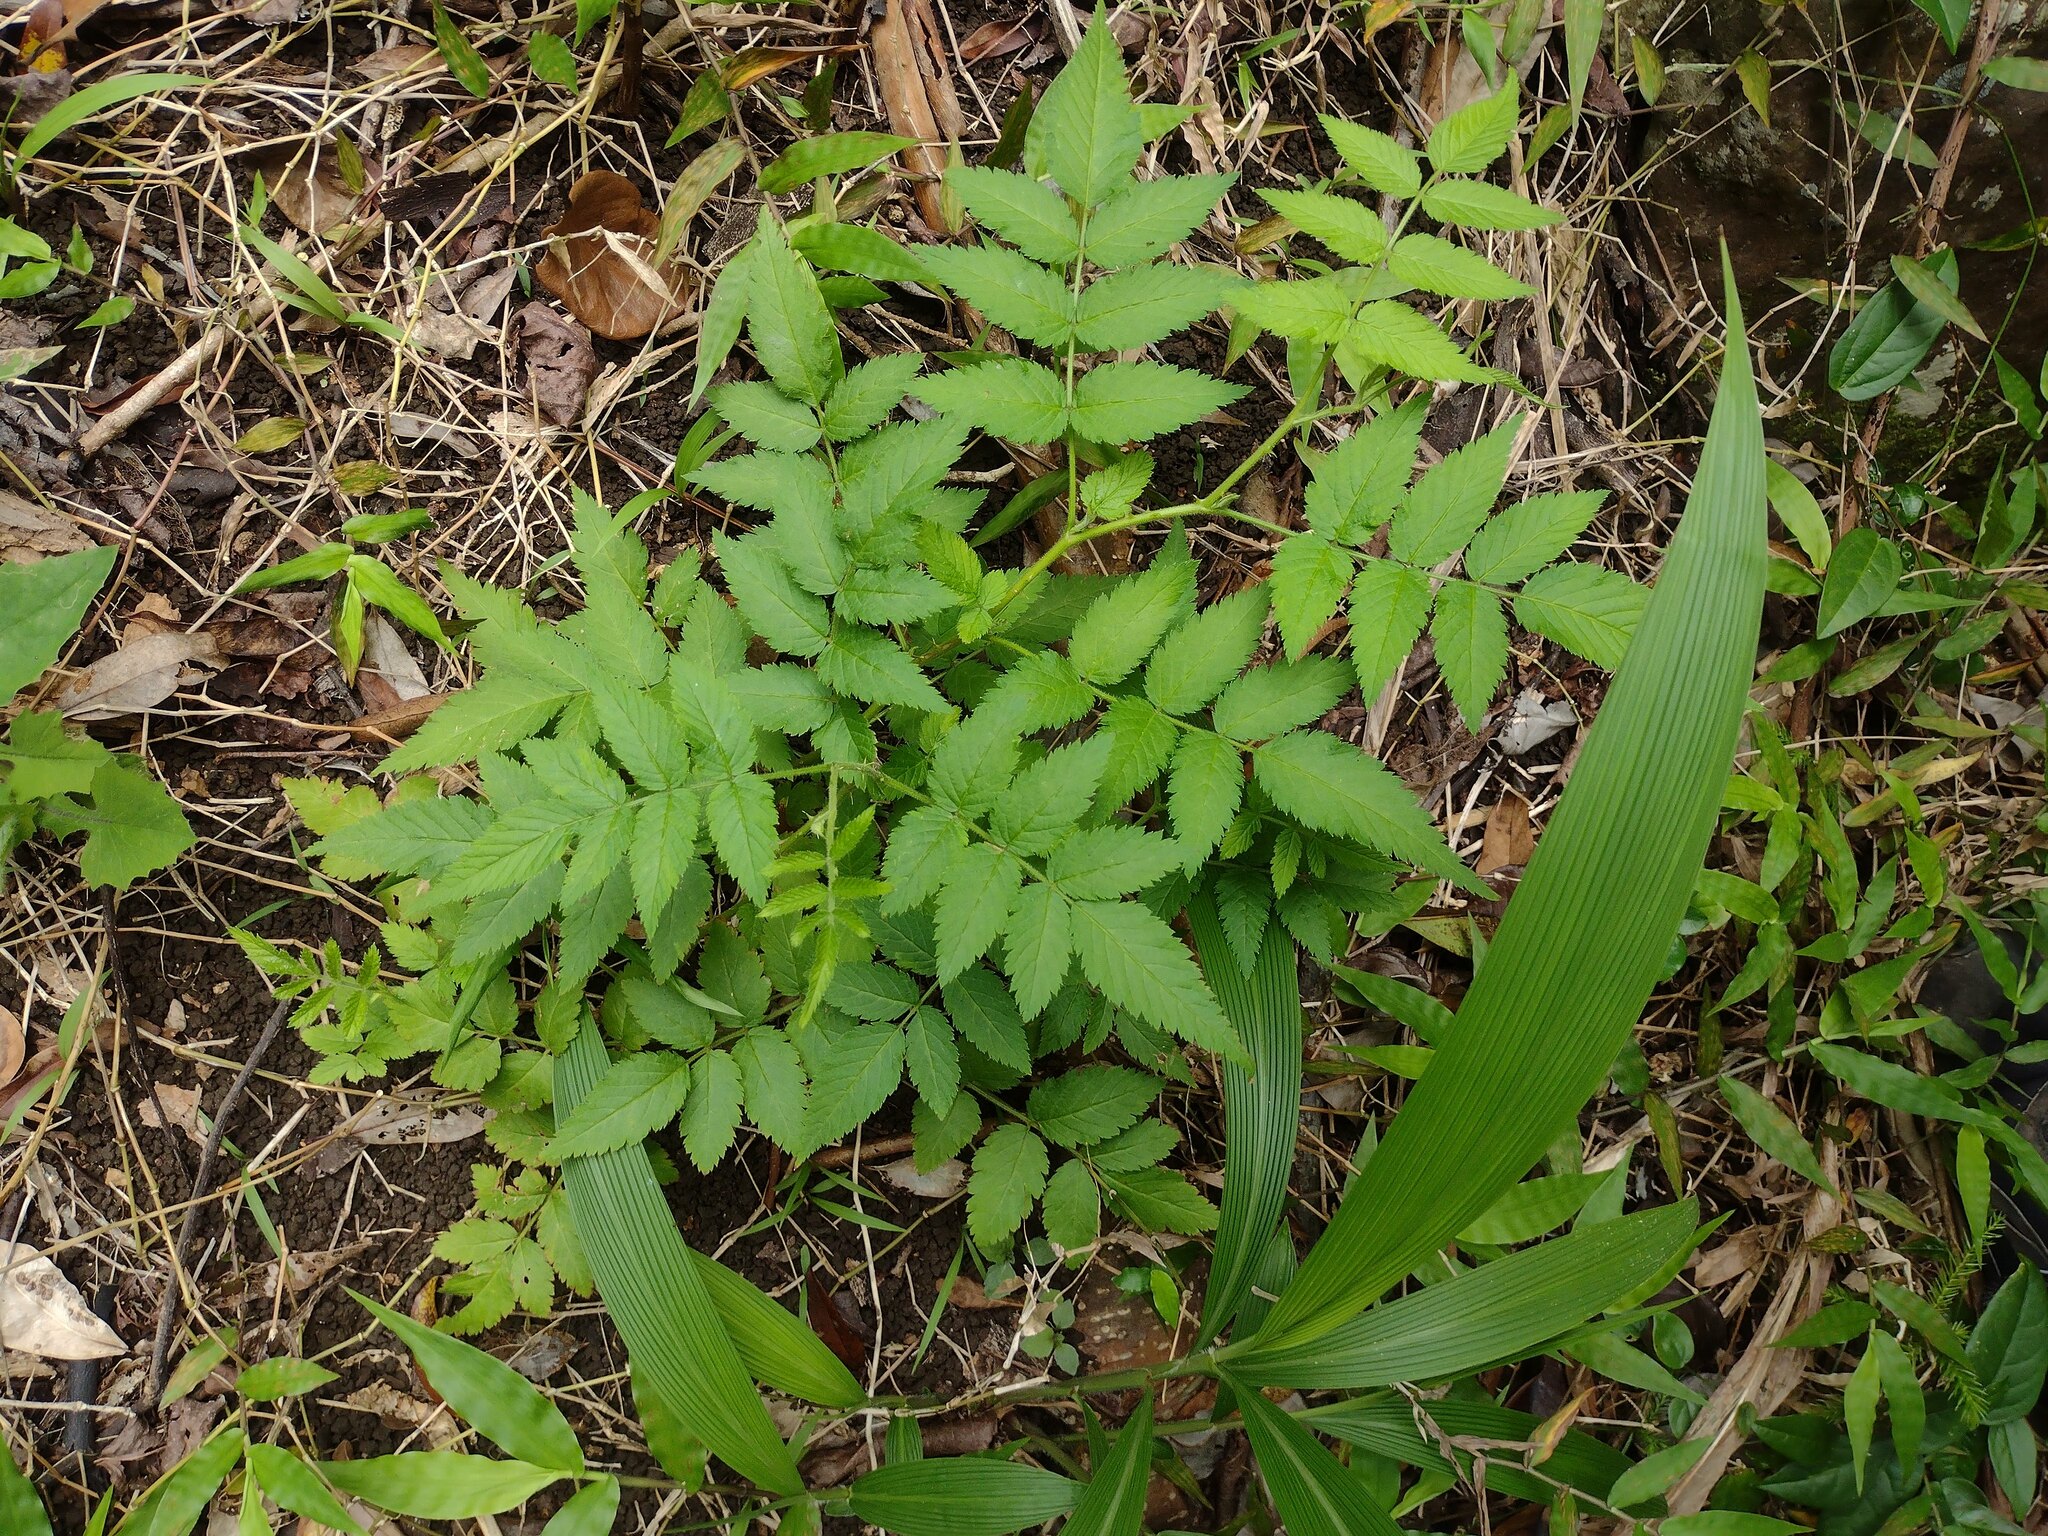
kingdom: Plantae
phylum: Tracheophyta
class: Magnoliopsida
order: Rosales
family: Rosaceae
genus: Rubus
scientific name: Rubus rosifolius
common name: Roseleaf raspberry
